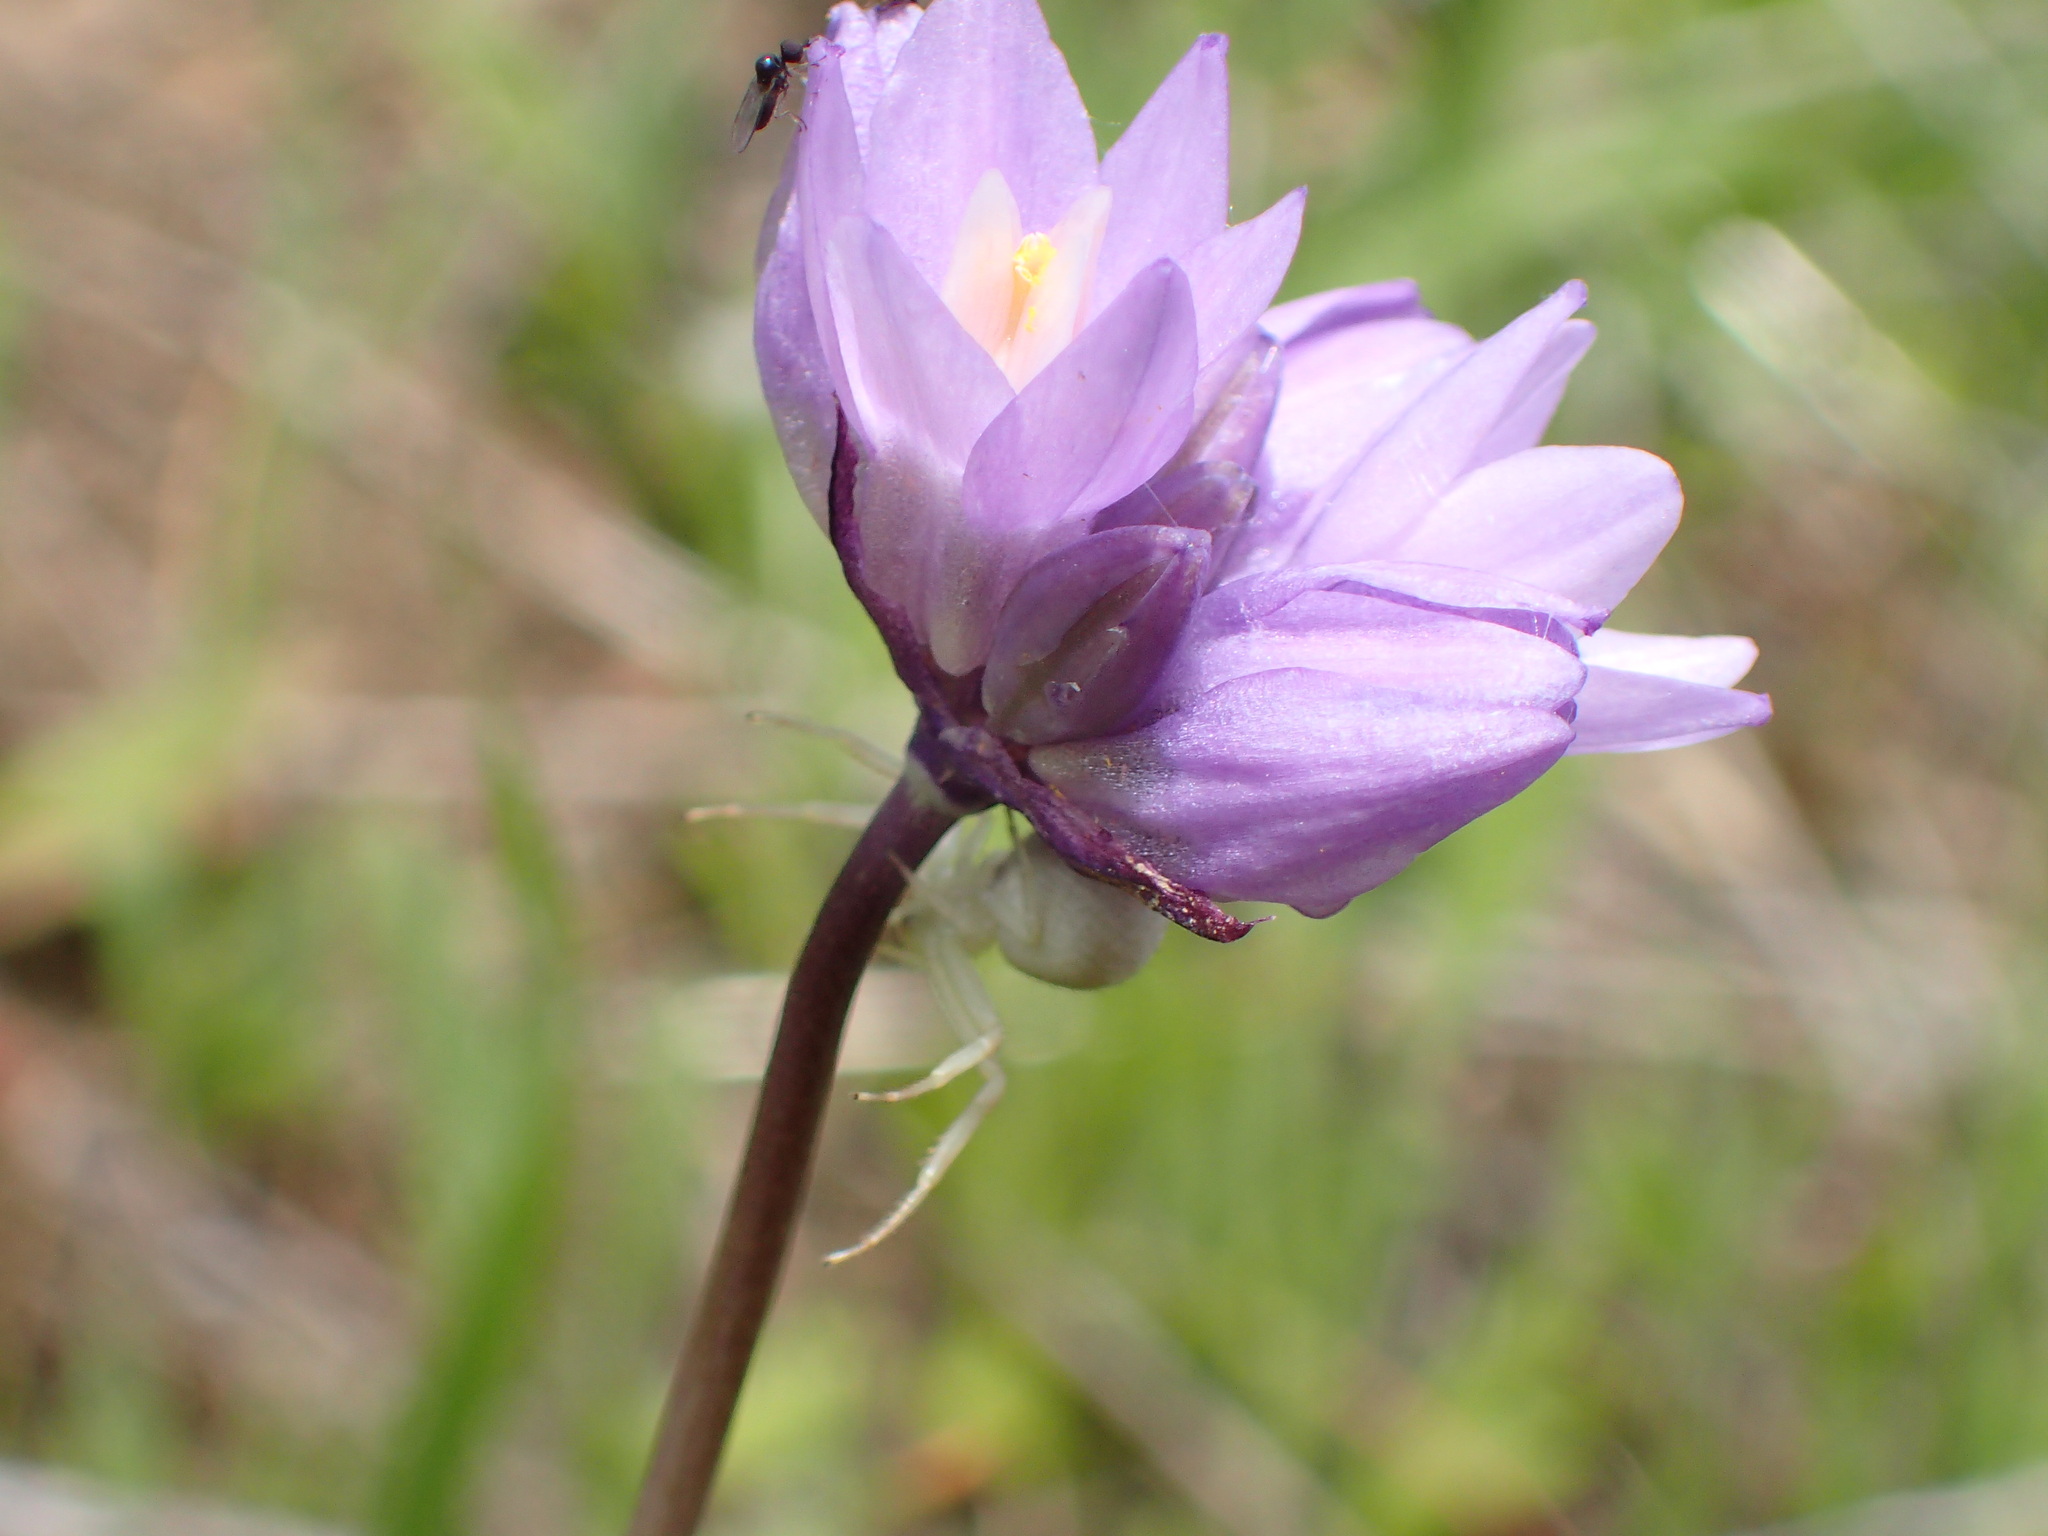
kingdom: Plantae
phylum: Tracheophyta
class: Liliopsida
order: Asparagales
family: Asparagaceae
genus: Dipterostemon
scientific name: Dipterostemon capitatus
